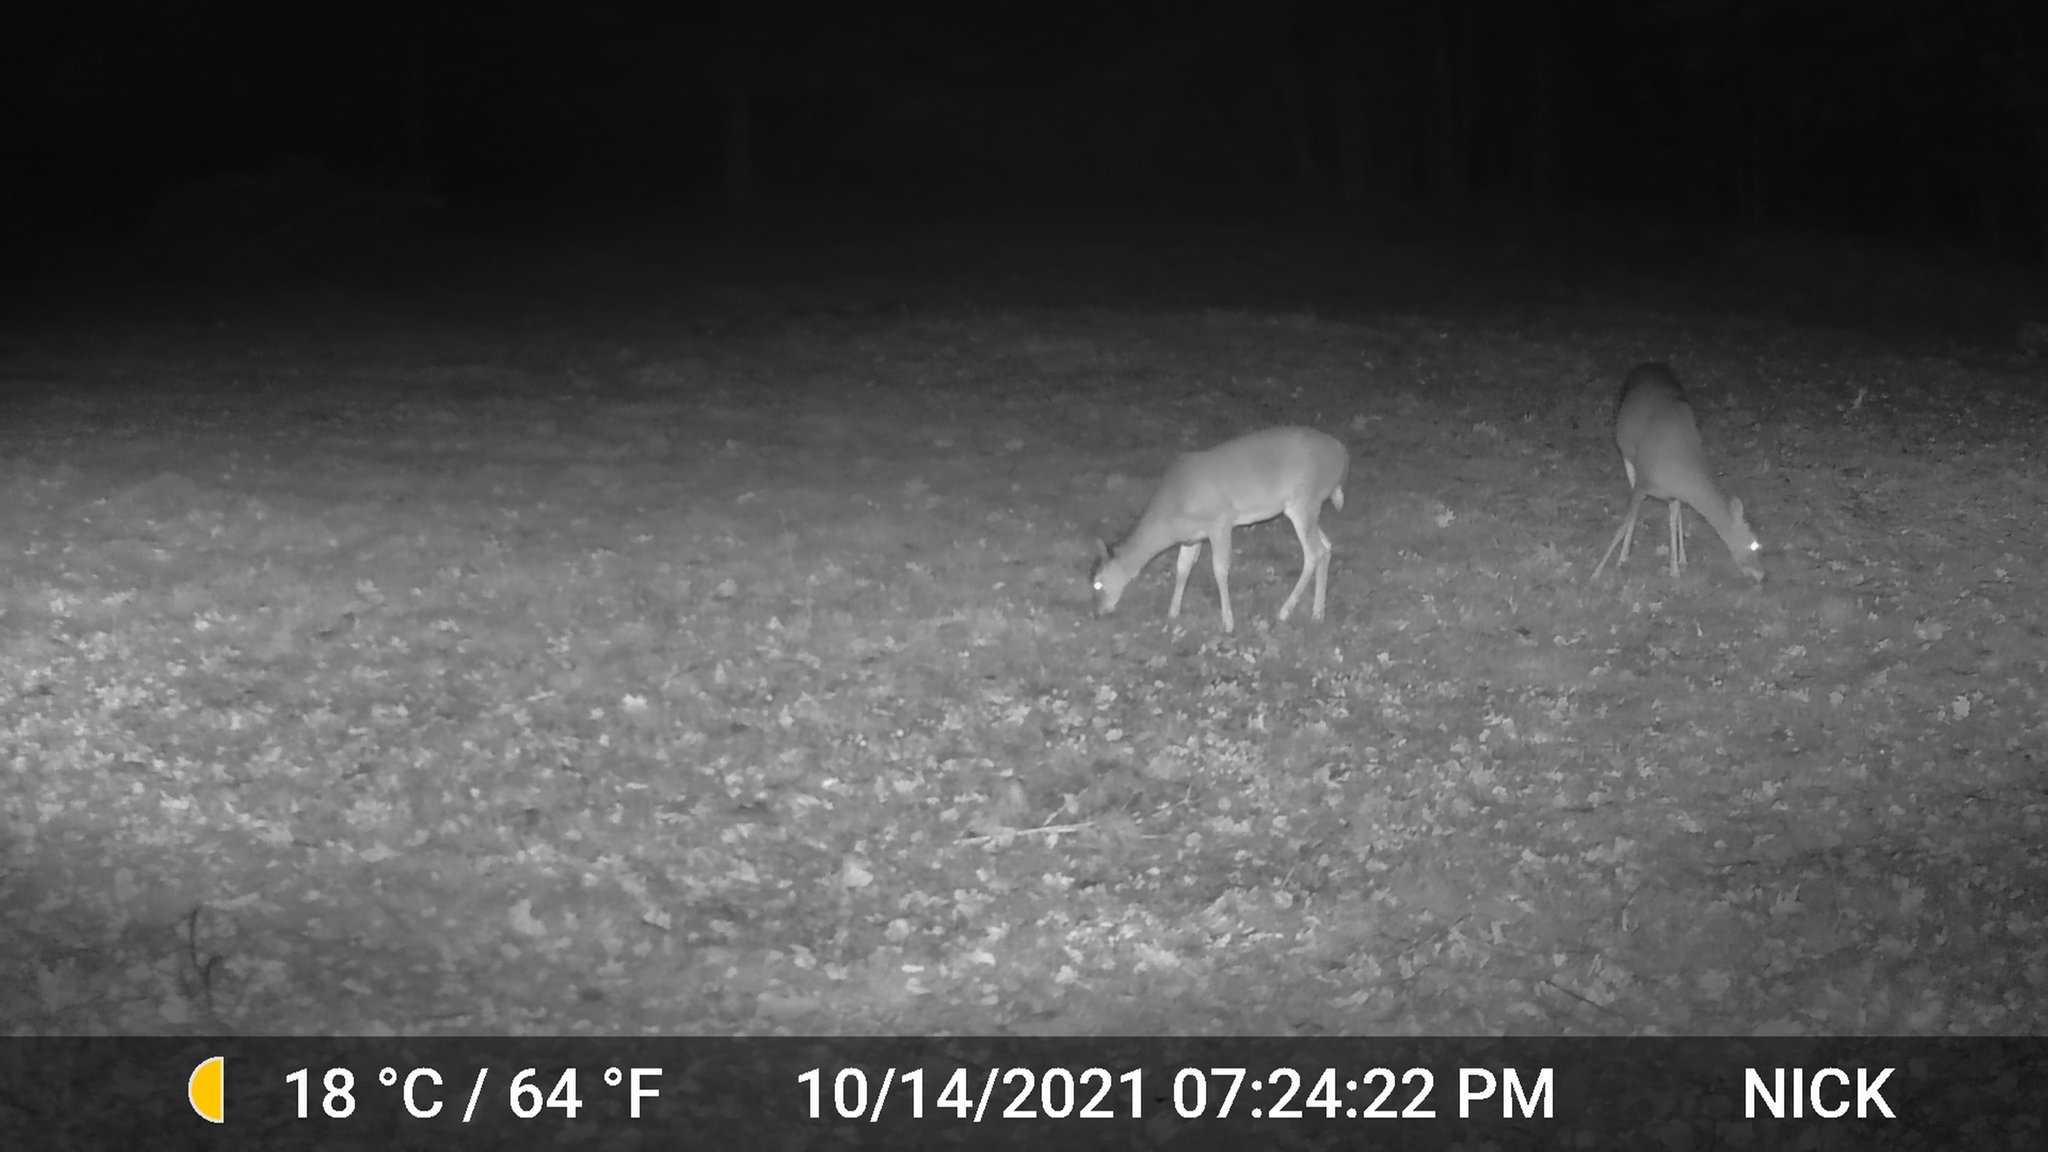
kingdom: Animalia
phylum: Chordata
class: Mammalia
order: Artiodactyla
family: Cervidae
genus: Odocoileus
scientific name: Odocoileus virginianus
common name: White-tailed deer
